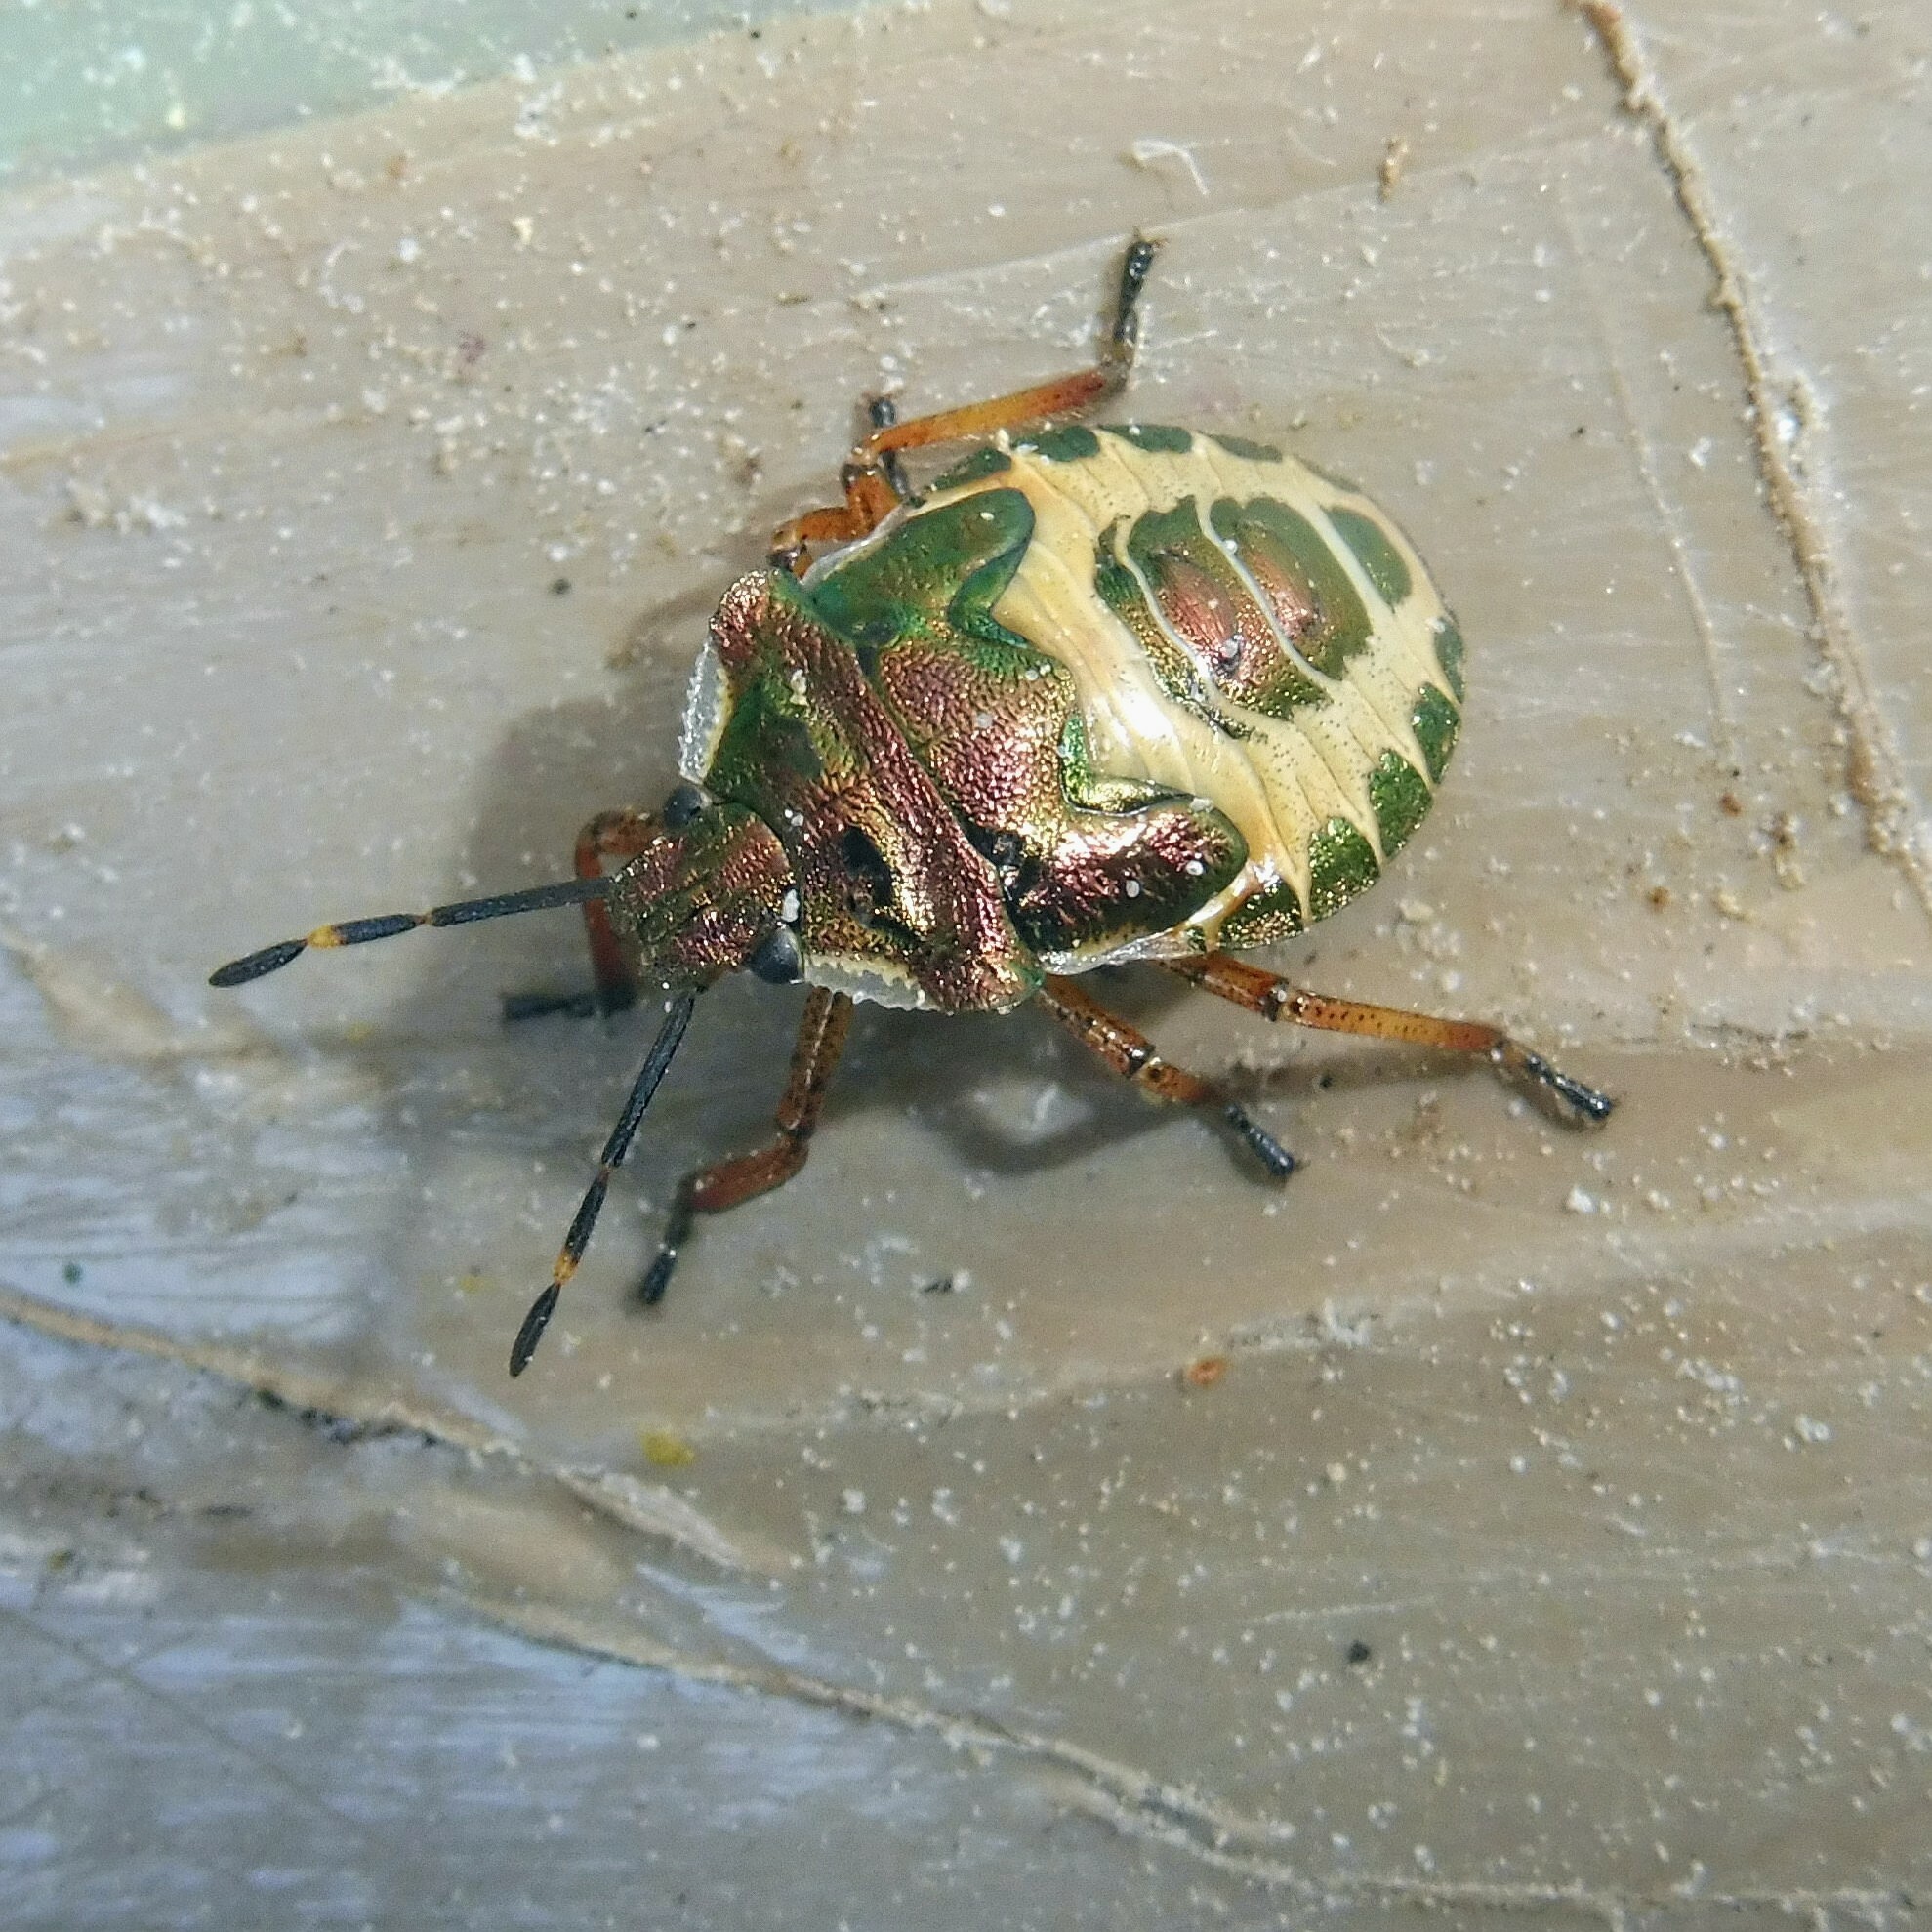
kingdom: Animalia
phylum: Arthropoda
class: Insecta
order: Hemiptera
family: Pentatomidae
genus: Troilus
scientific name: Troilus luridus
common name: Bronze shieldbug
